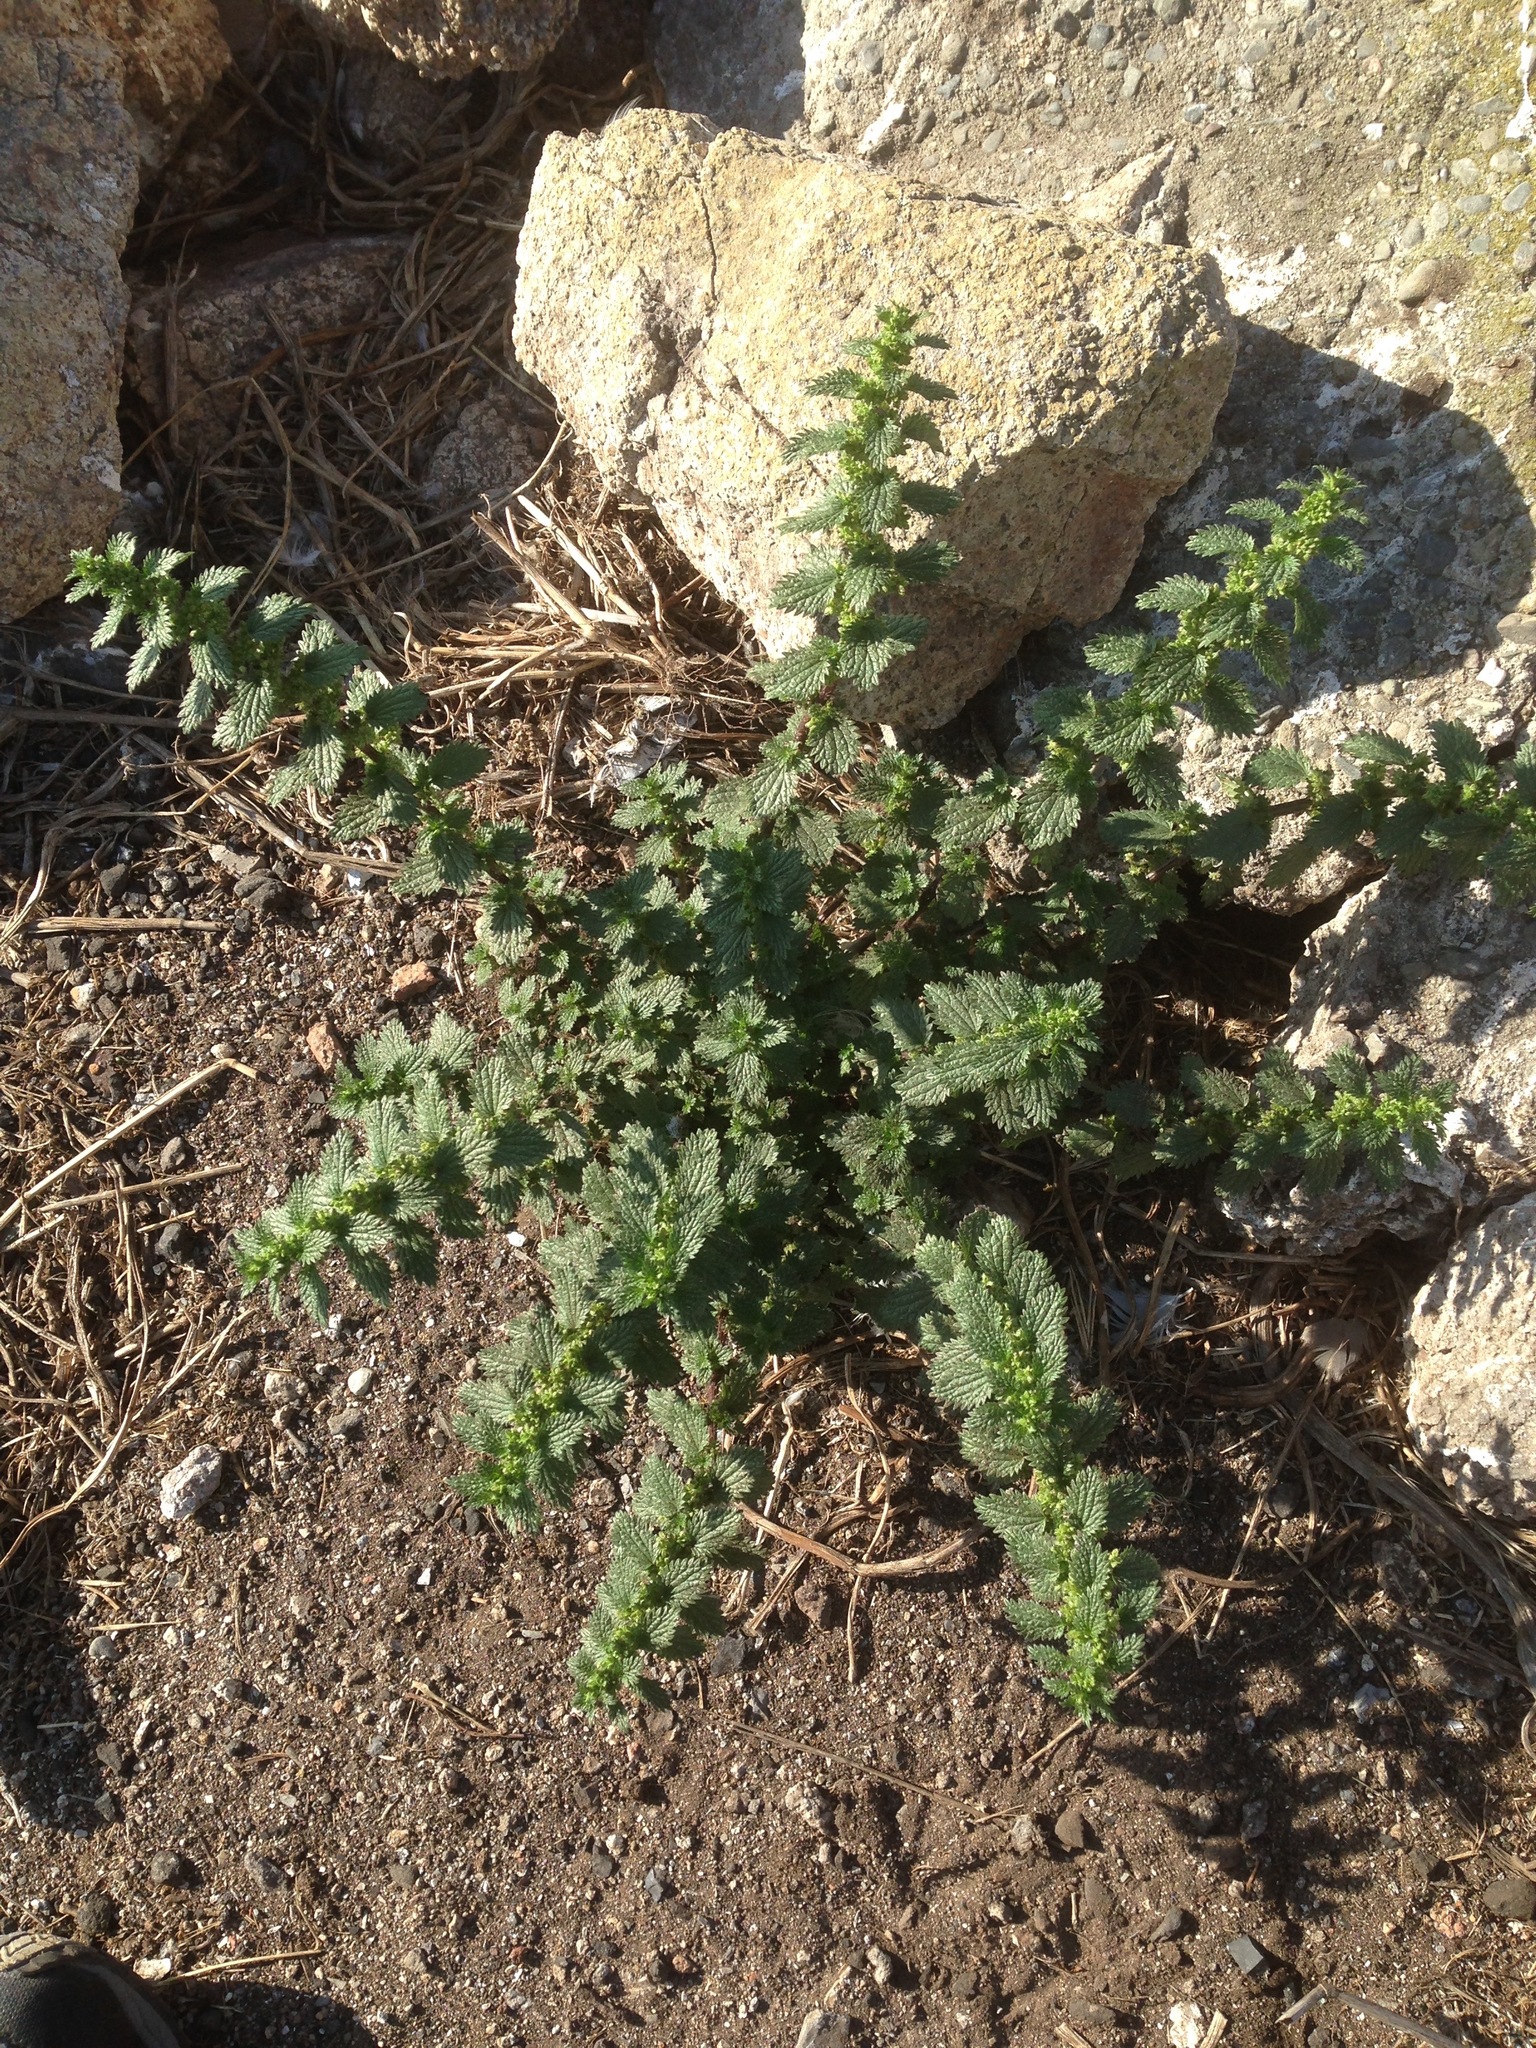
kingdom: Plantae
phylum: Tracheophyta
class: Magnoliopsida
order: Rosales
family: Urticaceae
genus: Urtica
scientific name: Urtica urens
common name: Dwarf nettle
